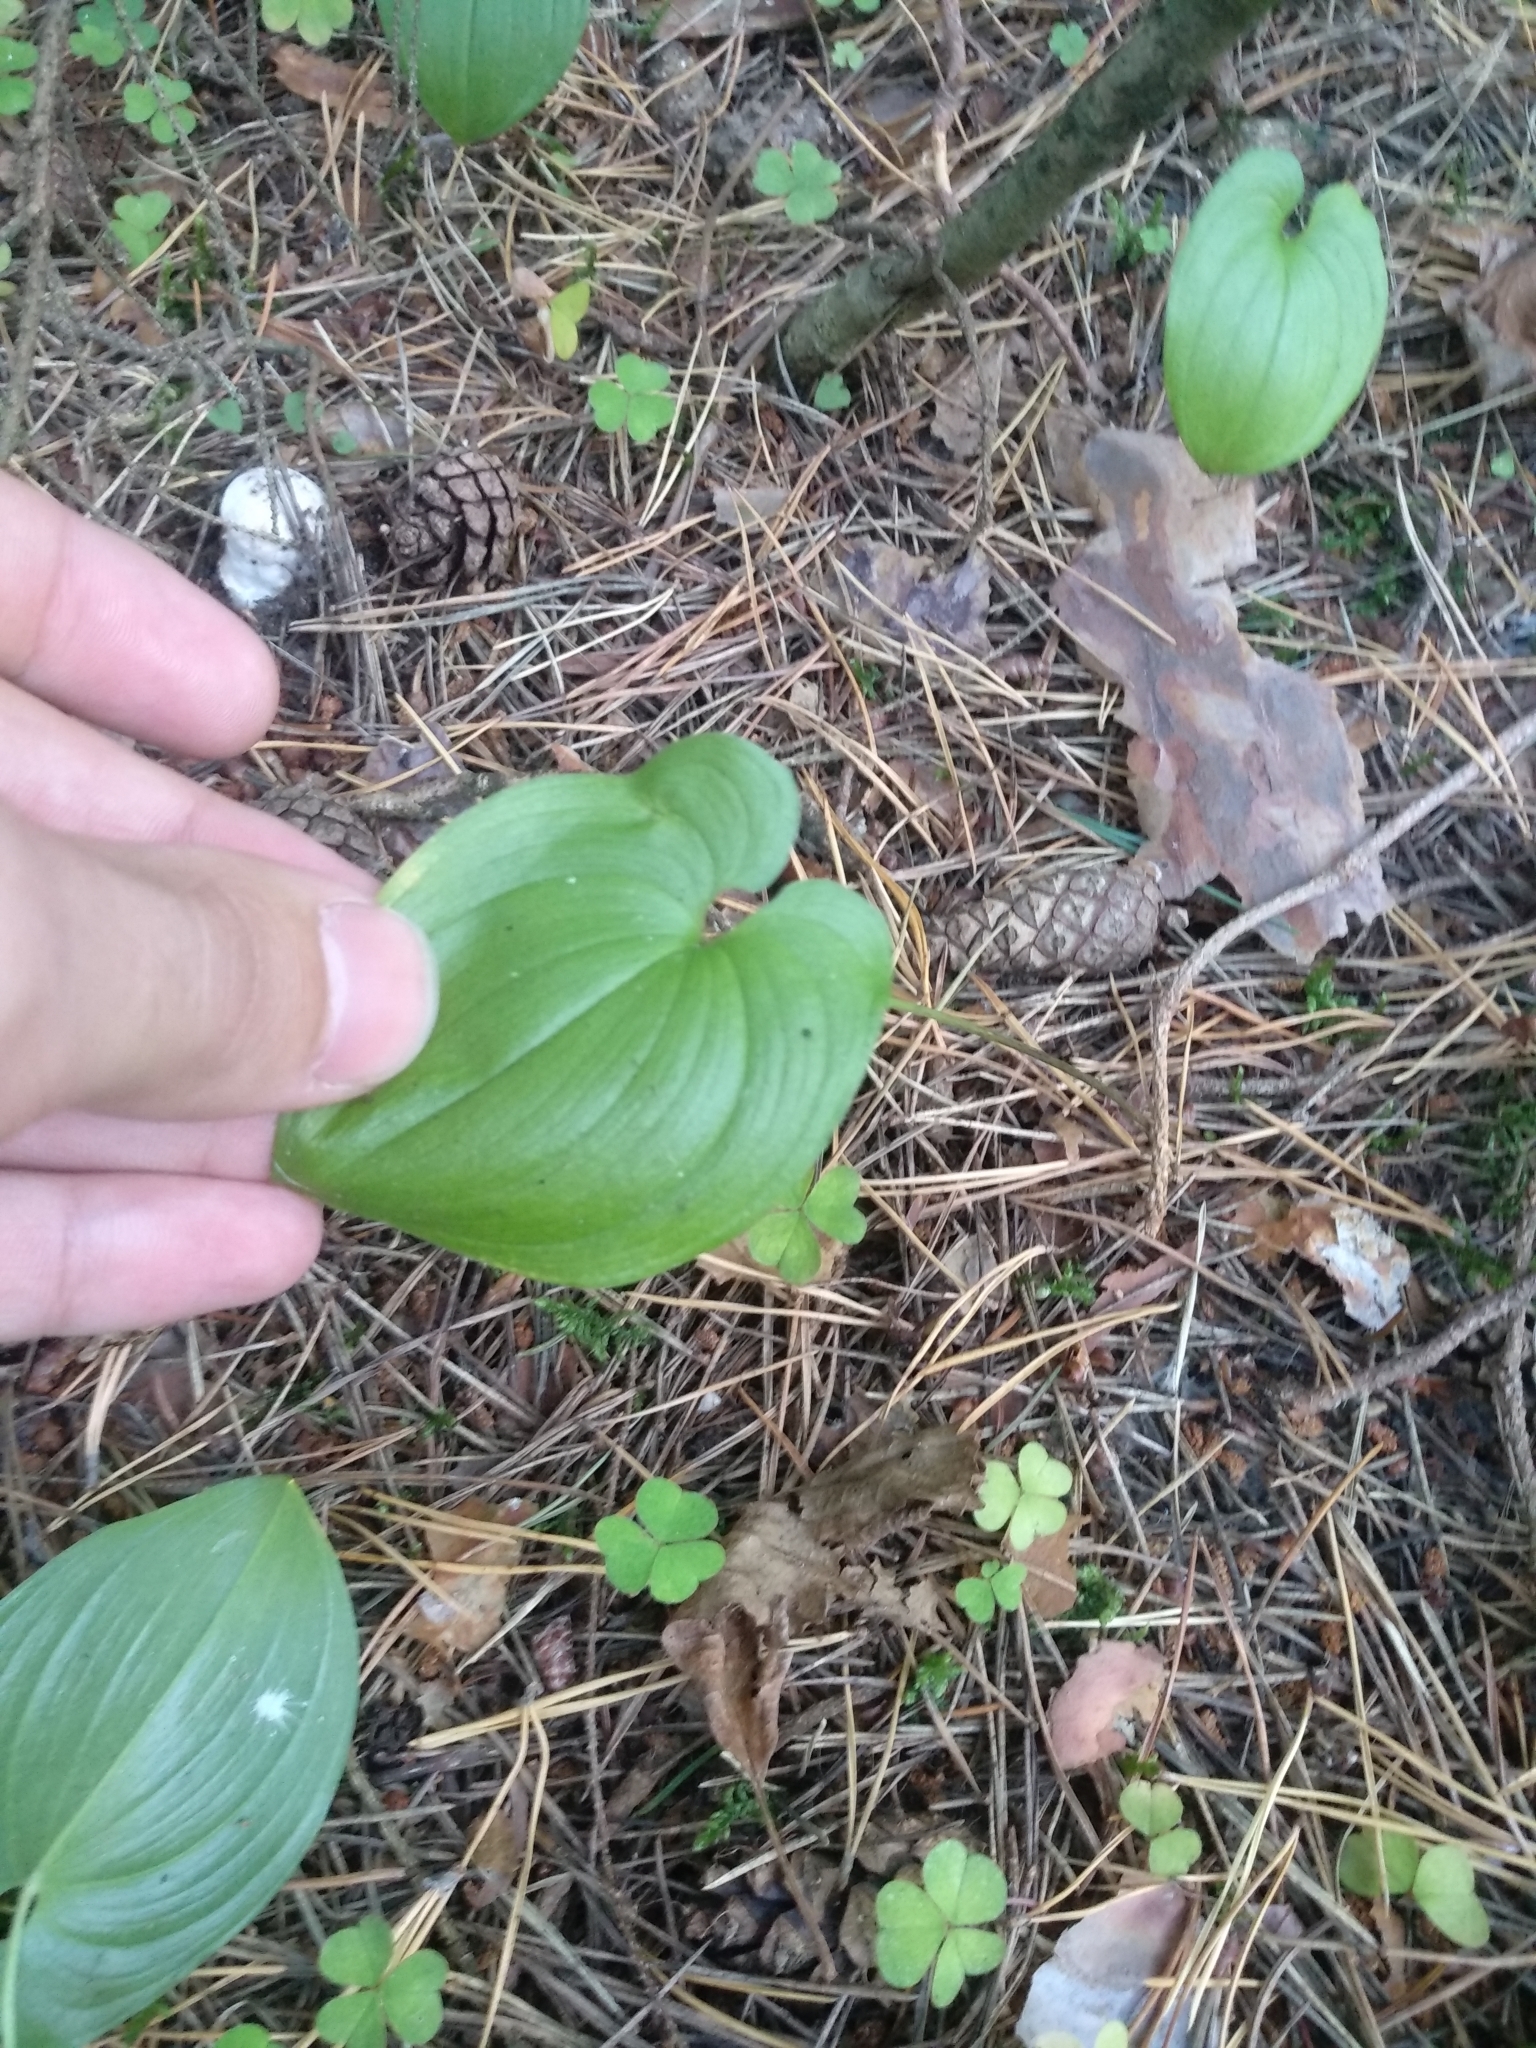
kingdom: Plantae
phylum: Tracheophyta
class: Liliopsida
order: Asparagales
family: Asparagaceae
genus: Maianthemum
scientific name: Maianthemum bifolium
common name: May lily
